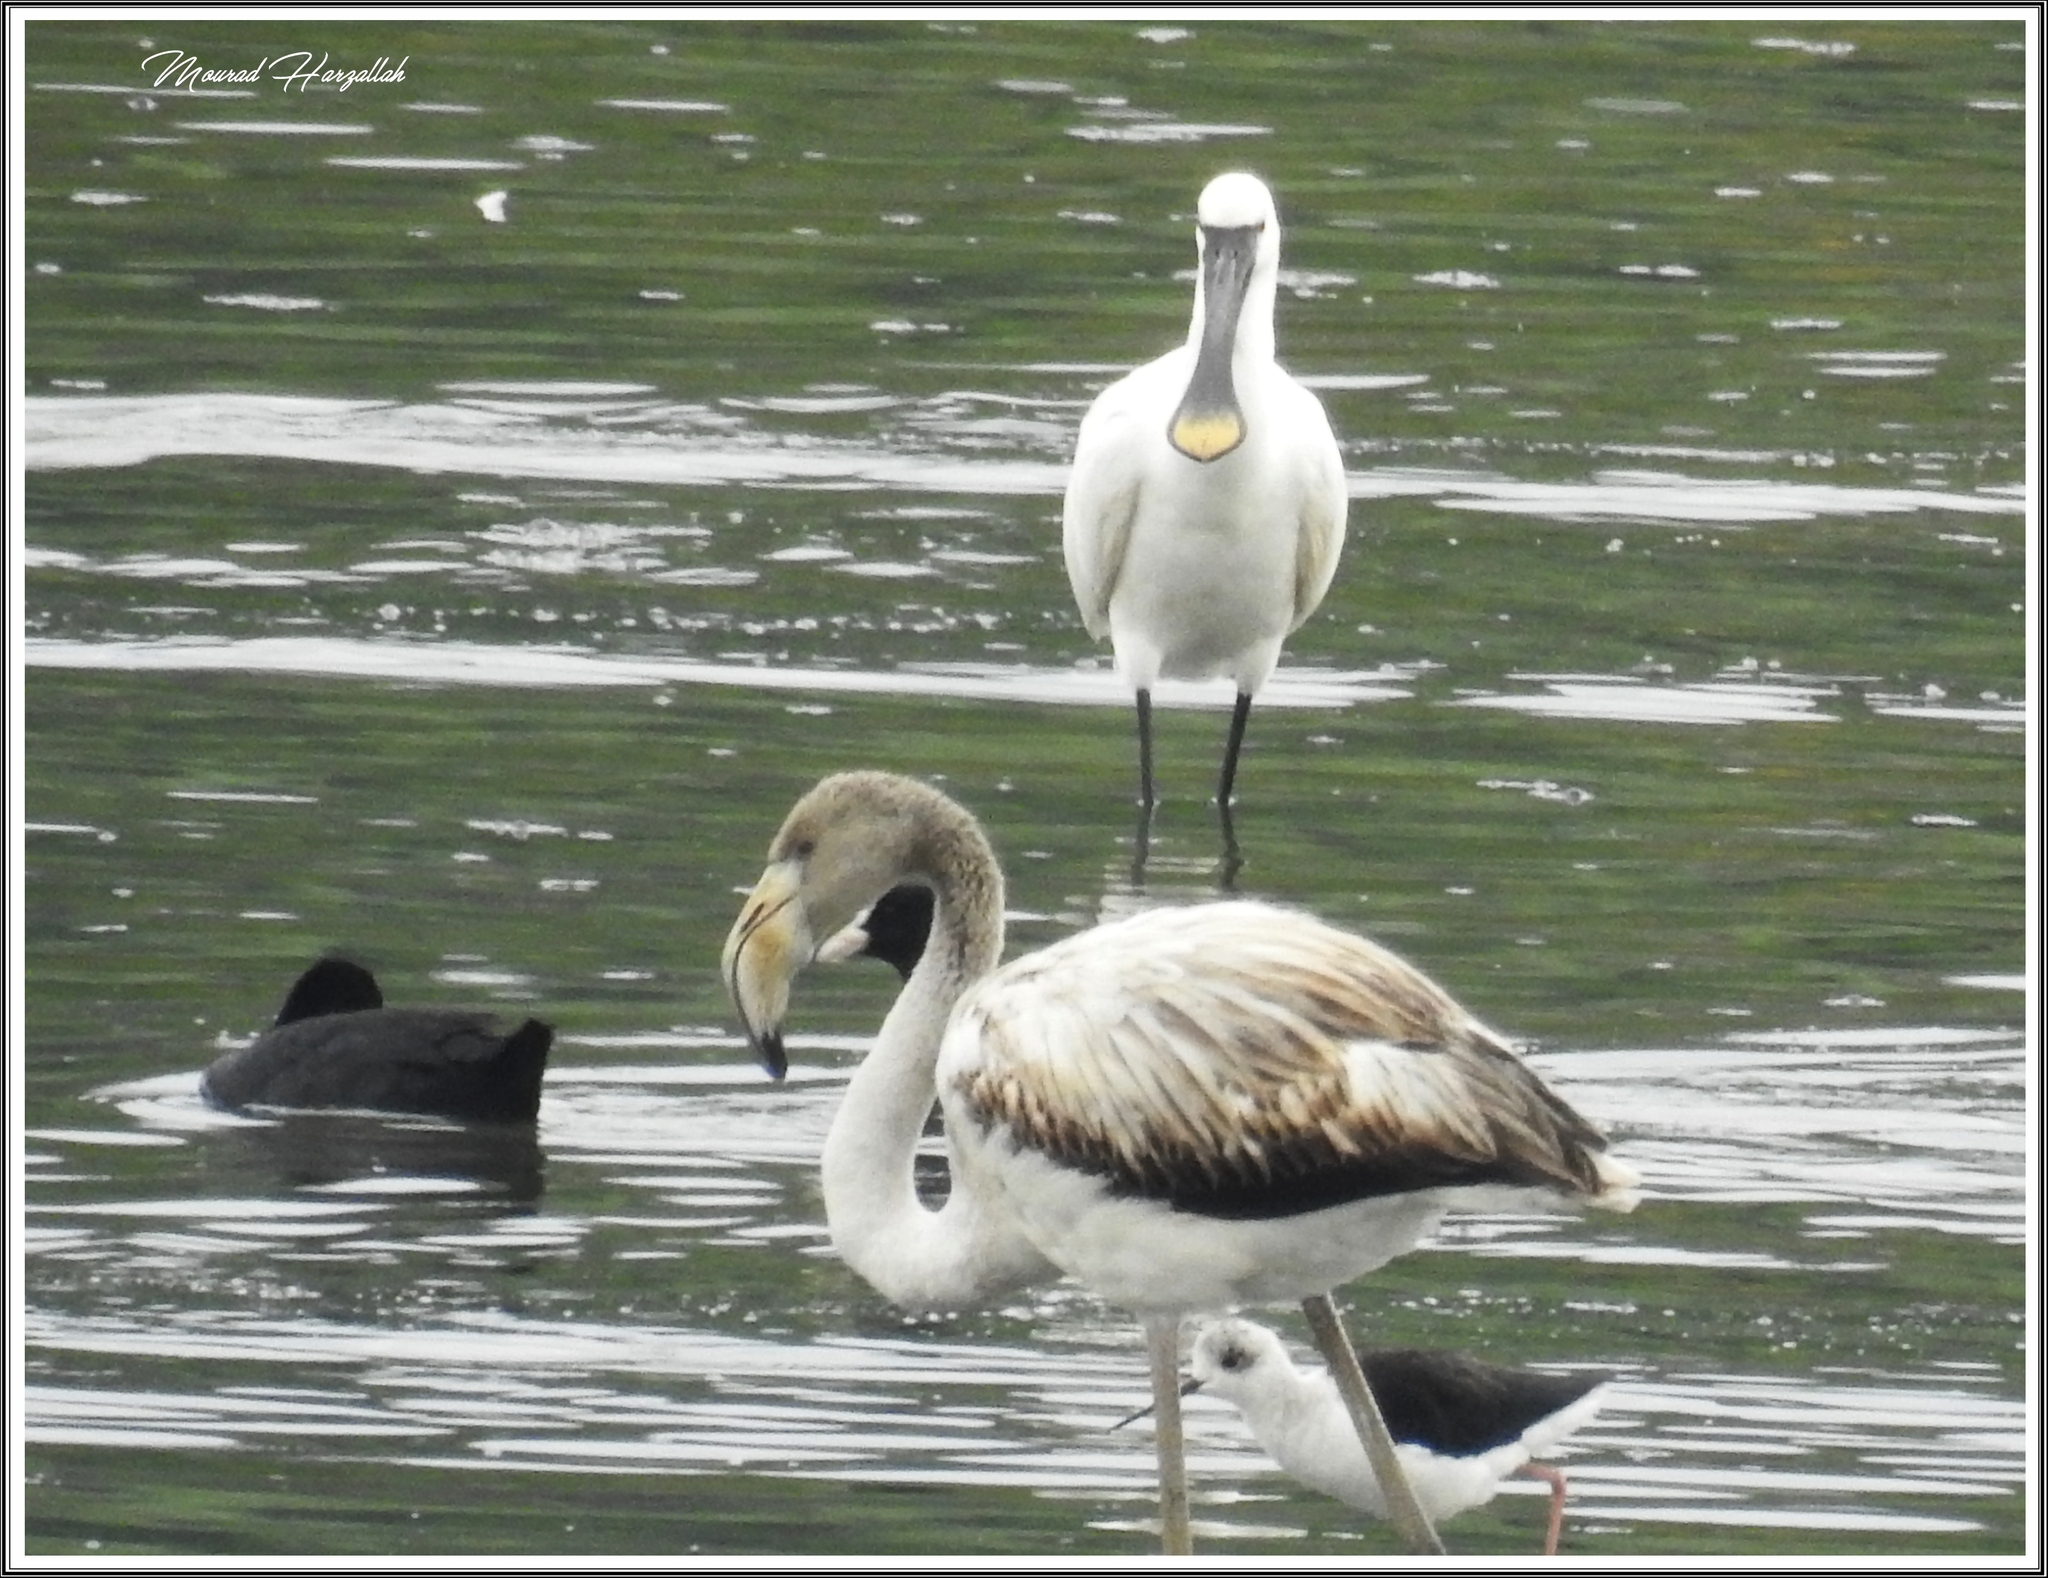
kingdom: Animalia
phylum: Chordata
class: Aves
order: Phoenicopteriformes
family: Phoenicopteridae
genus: Phoenicopterus
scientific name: Phoenicopterus roseus
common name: Greater flamingo
